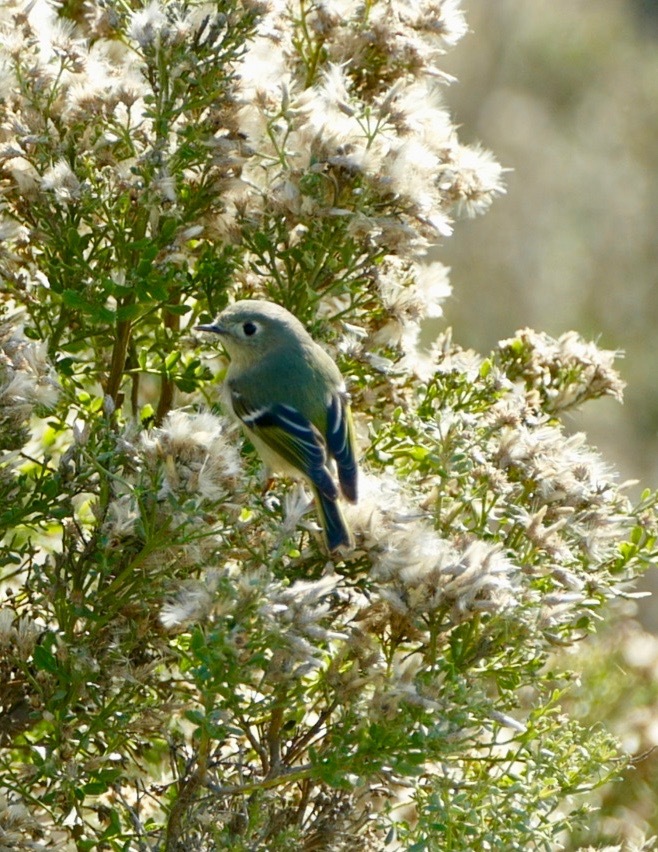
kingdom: Animalia
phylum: Chordata
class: Aves
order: Passeriformes
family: Regulidae
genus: Regulus
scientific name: Regulus calendula
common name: Ruby-crowned kinglet
